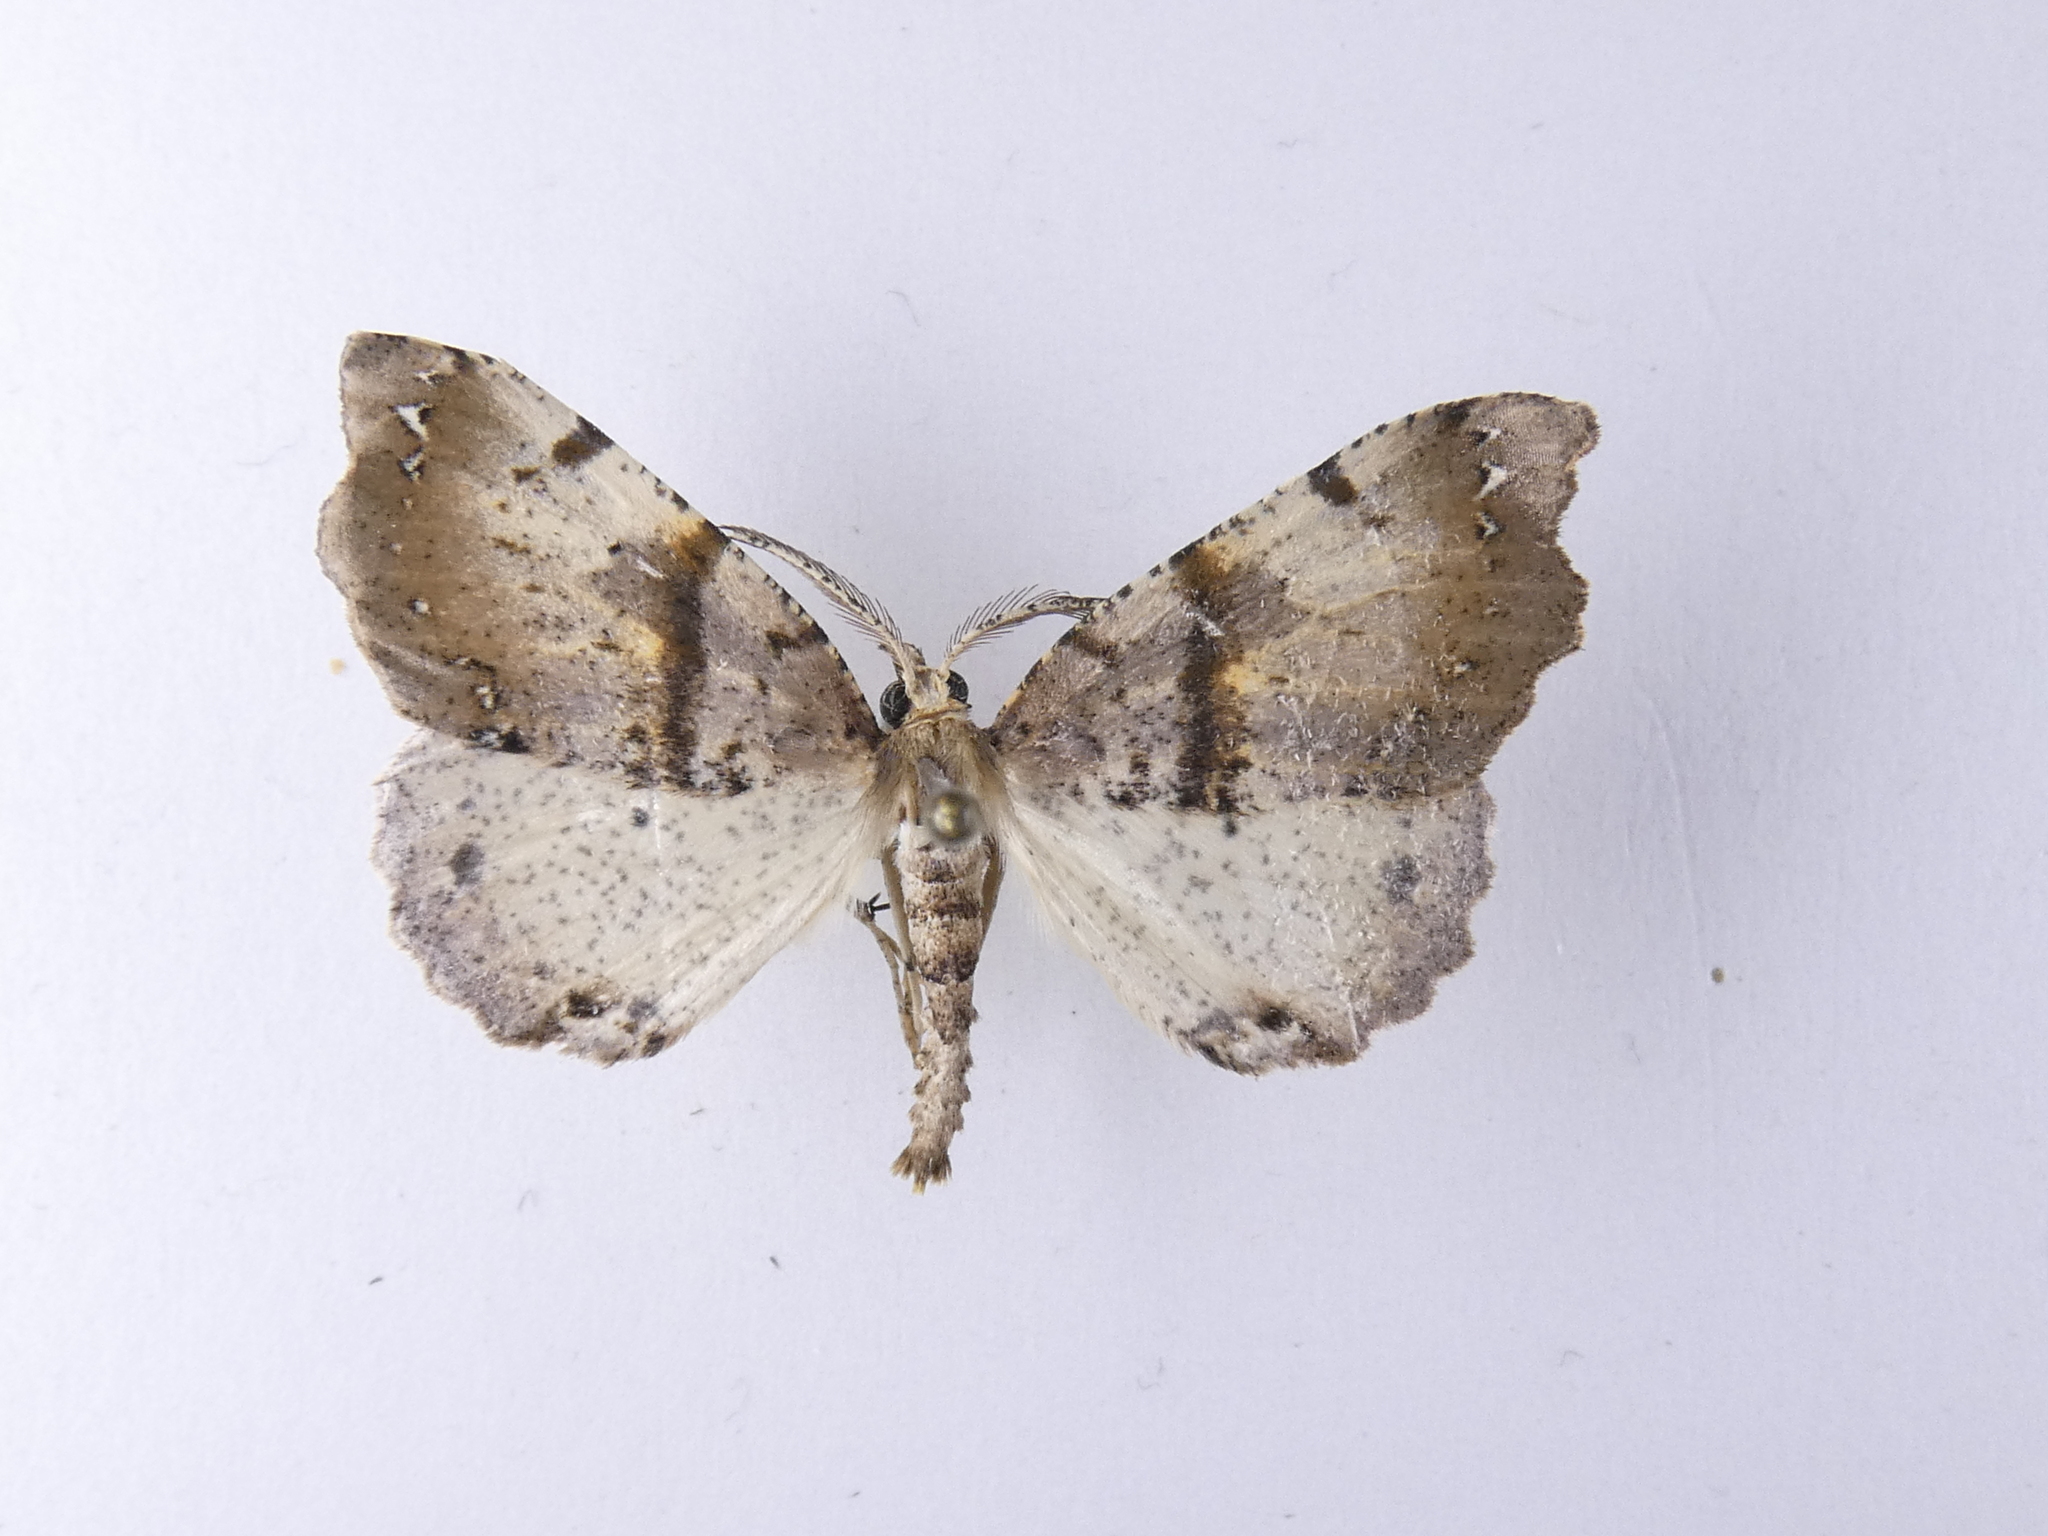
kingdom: Animalia
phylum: Arthropoda
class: Insecta
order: Lepidoptera
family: Geometridae
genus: Chalastra
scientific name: Chalastra pellurgata
